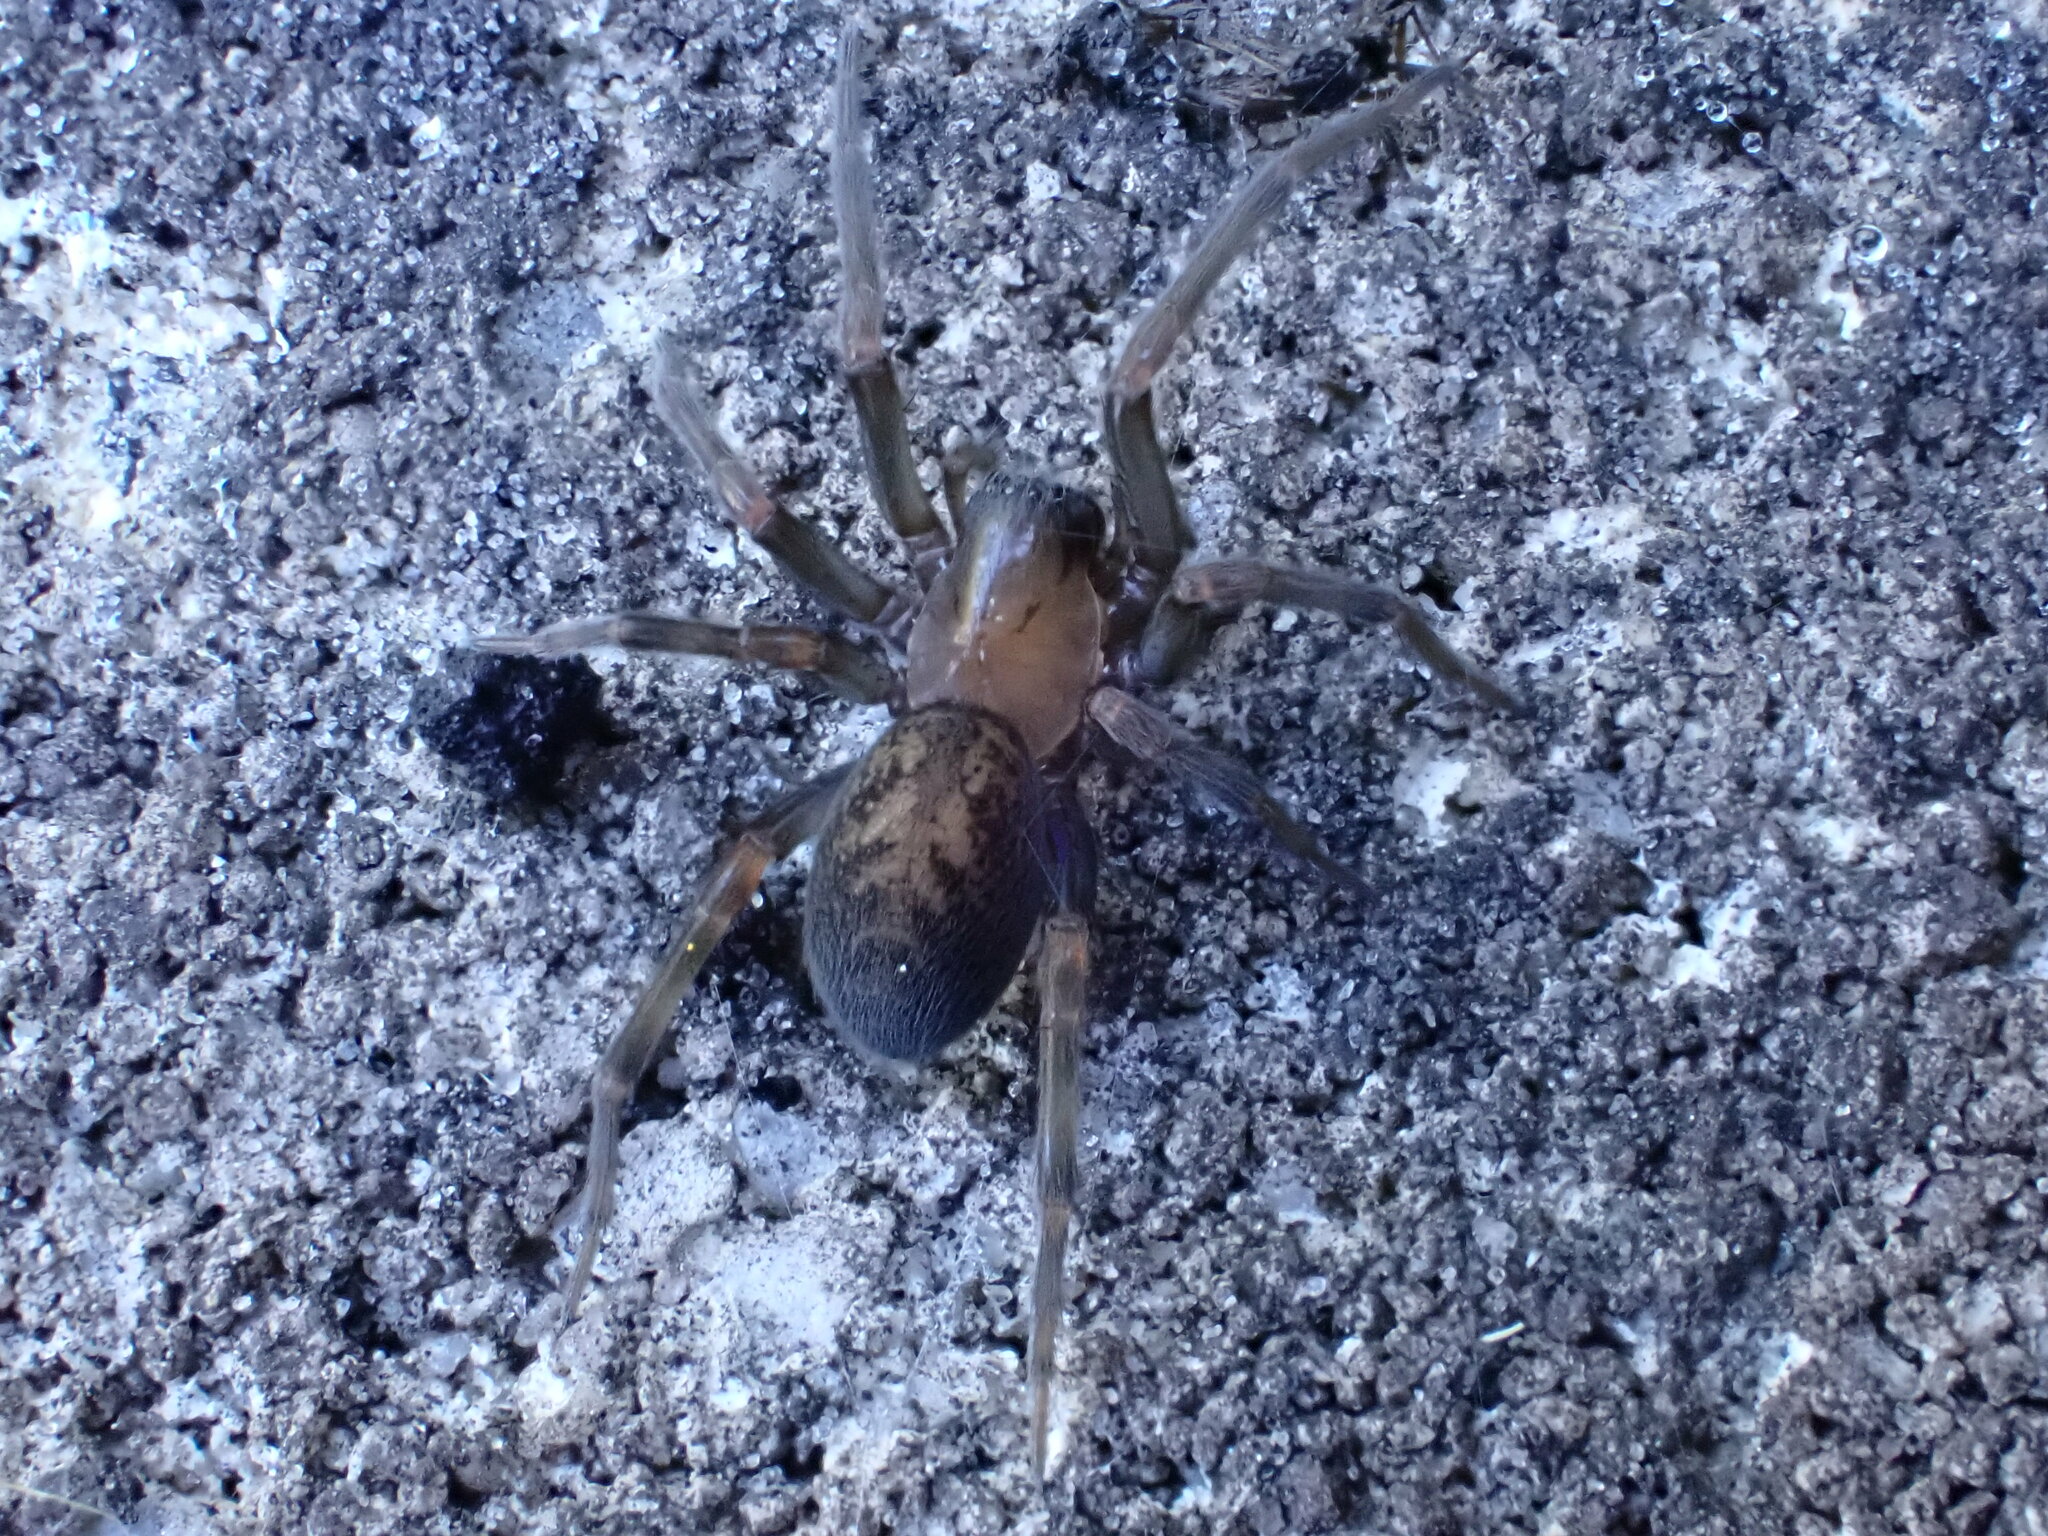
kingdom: Animalia
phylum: Arthropoda
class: Arachnida
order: Araneae
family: Desidae
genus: Metaltella
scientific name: Metaltella simoni
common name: Cribellate spider
